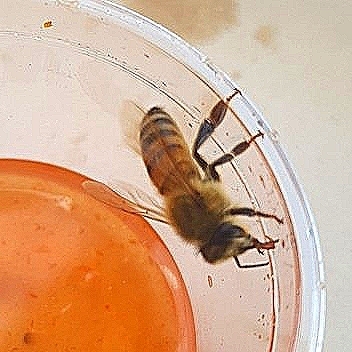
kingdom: Animalia
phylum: Arthropoda
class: Insecta
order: Hymenoptera
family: Apidae
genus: Apis
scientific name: Apis mellifera
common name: Honey bee
